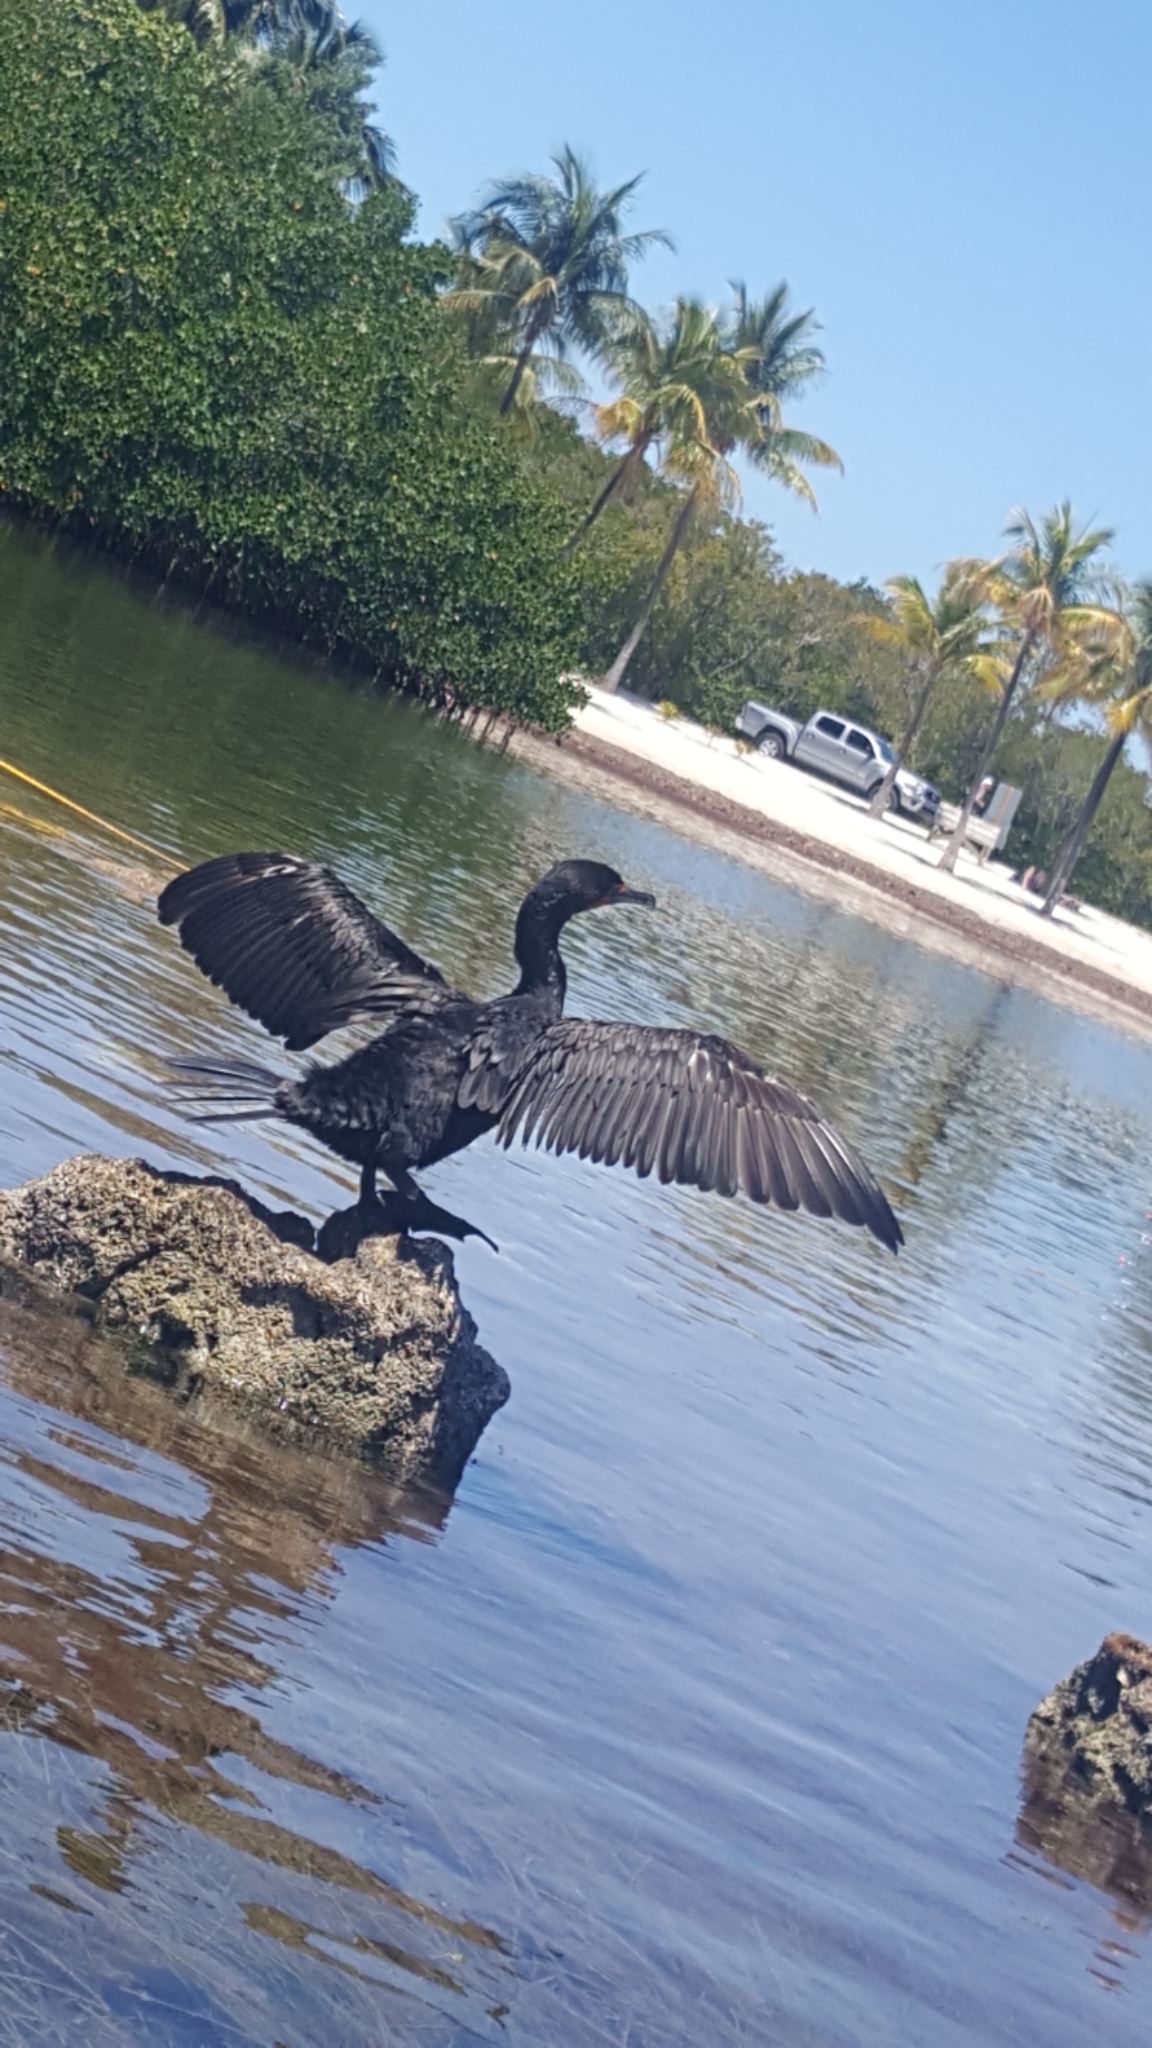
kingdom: Animalia
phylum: Chordata
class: Aves
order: Suliformes
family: Phalacrocoracidae
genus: Phalacrocorax
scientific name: Phalacrocorax auritus
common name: Double-crested cormorant
